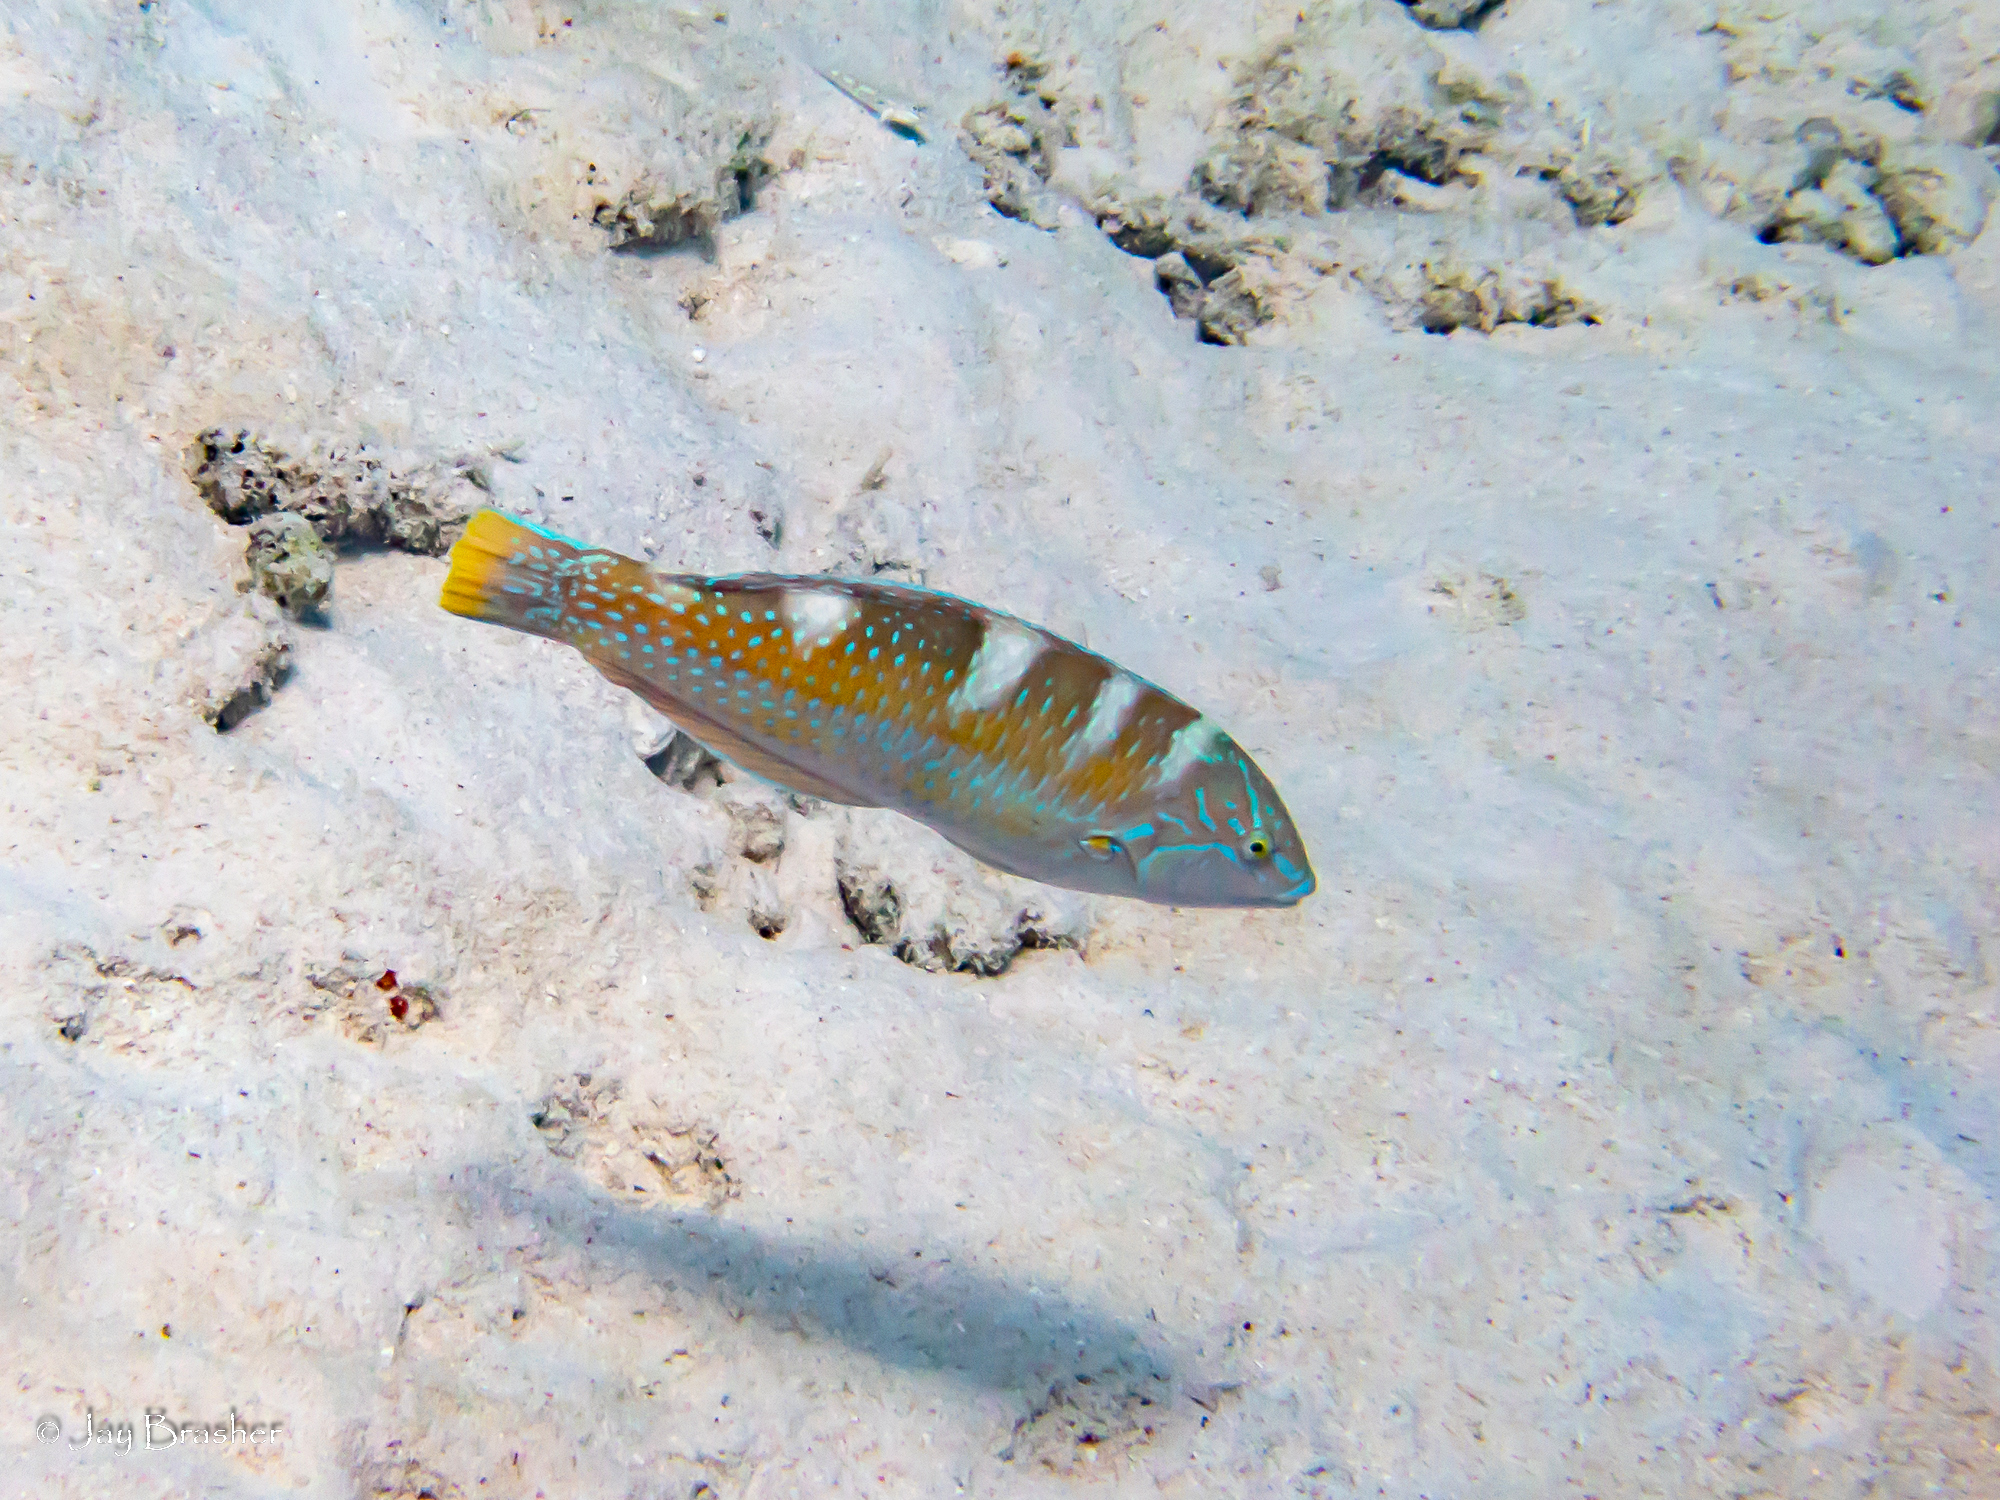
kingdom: Animalia
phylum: Chordata
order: Perciformes
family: Labridae
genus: Halichoeres
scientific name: Halichoeres radiatus
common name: Puddingwife
